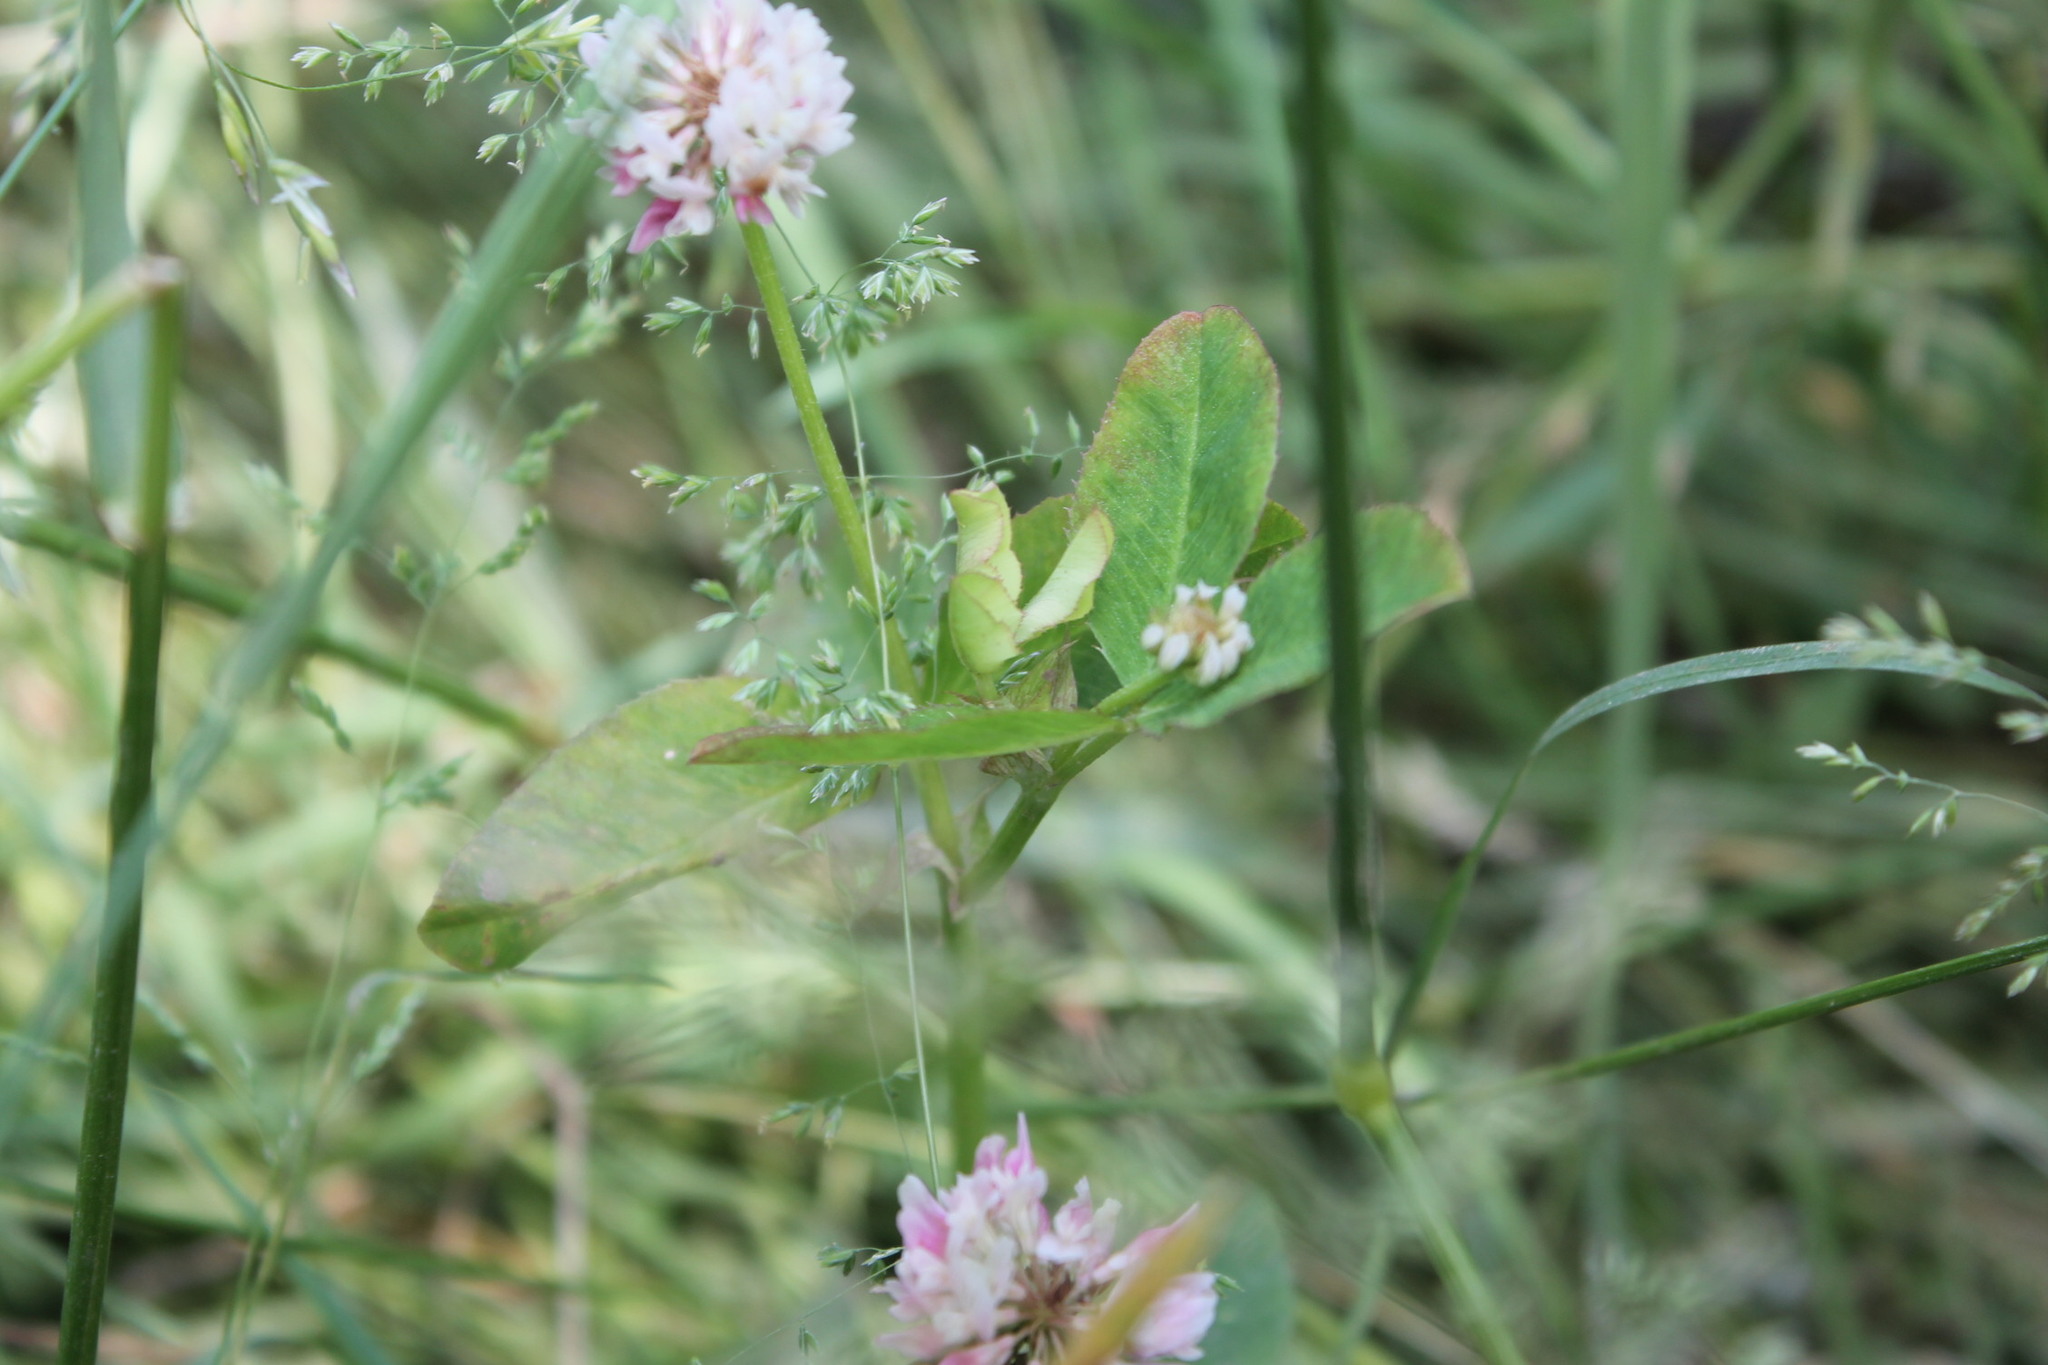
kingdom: Plantae
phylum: Tracheophyta
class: Magnoliopsida
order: Fabales
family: Fabaceae
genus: Trifolium
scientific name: Trifolium hybridum
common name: Alsike clover
